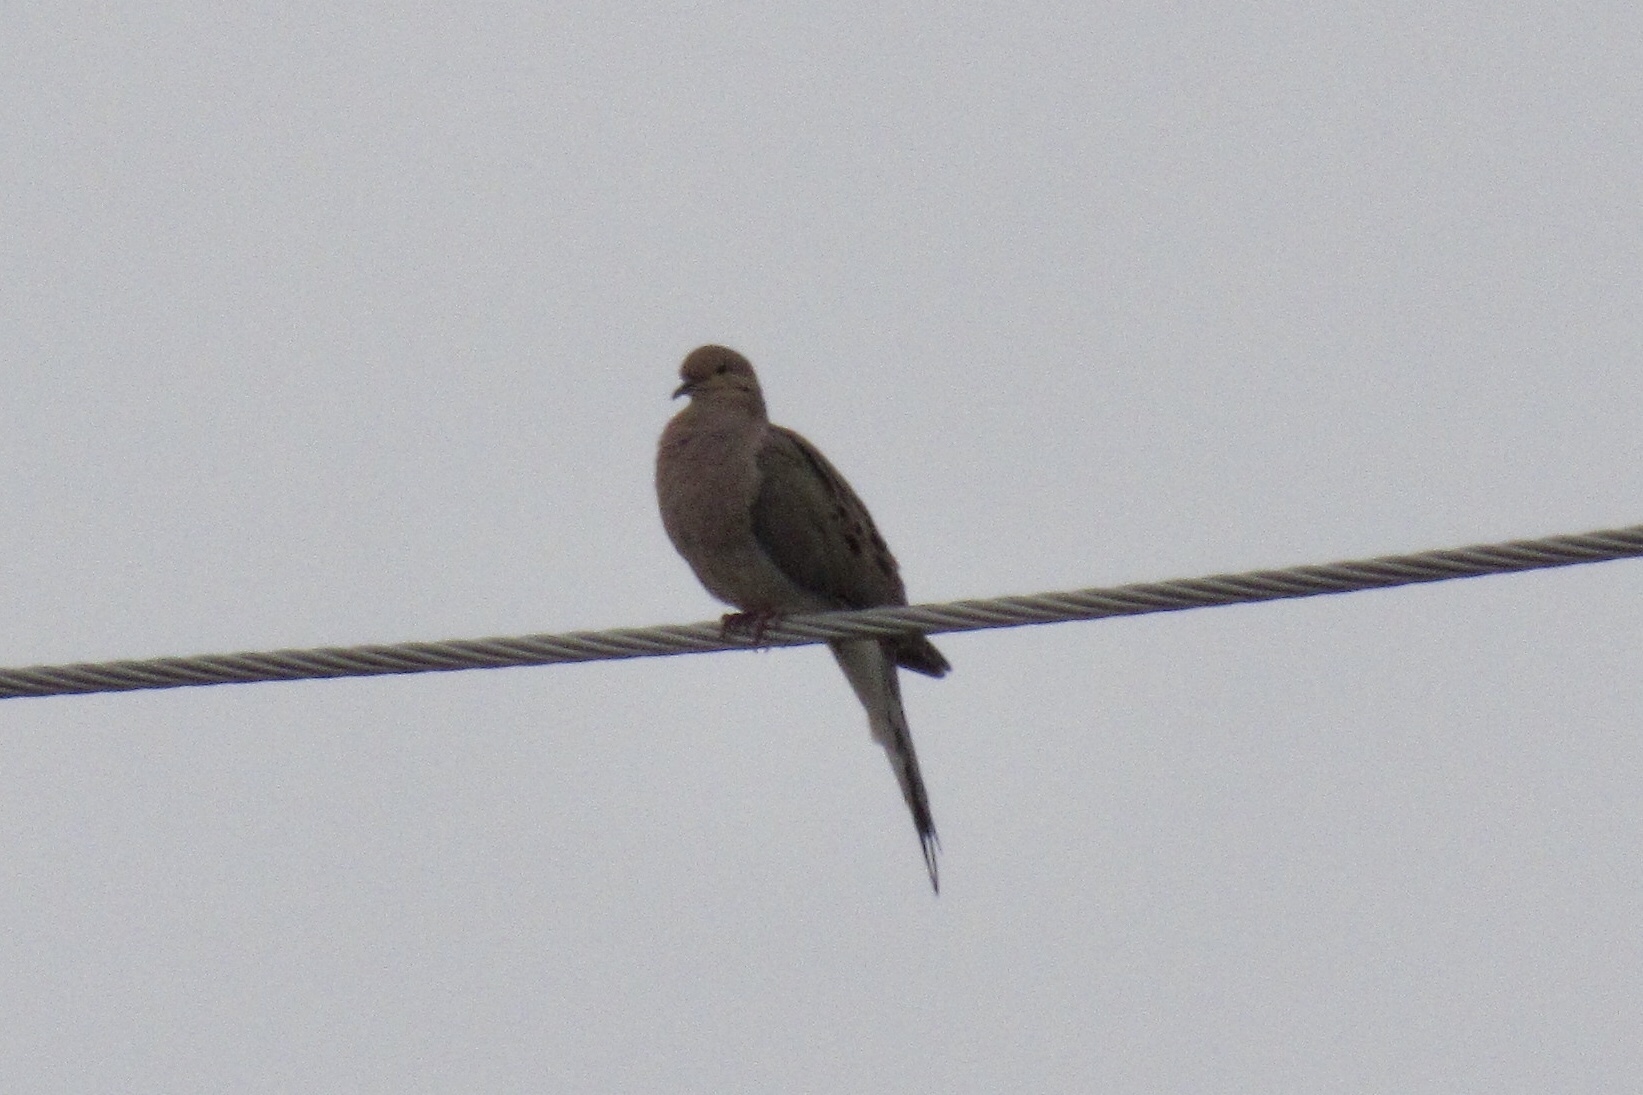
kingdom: Animalia
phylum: Chordata
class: Aves
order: Columbiformes
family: Columbidae
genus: Zenaida
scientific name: Zenaida macroura
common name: Mourning dove
